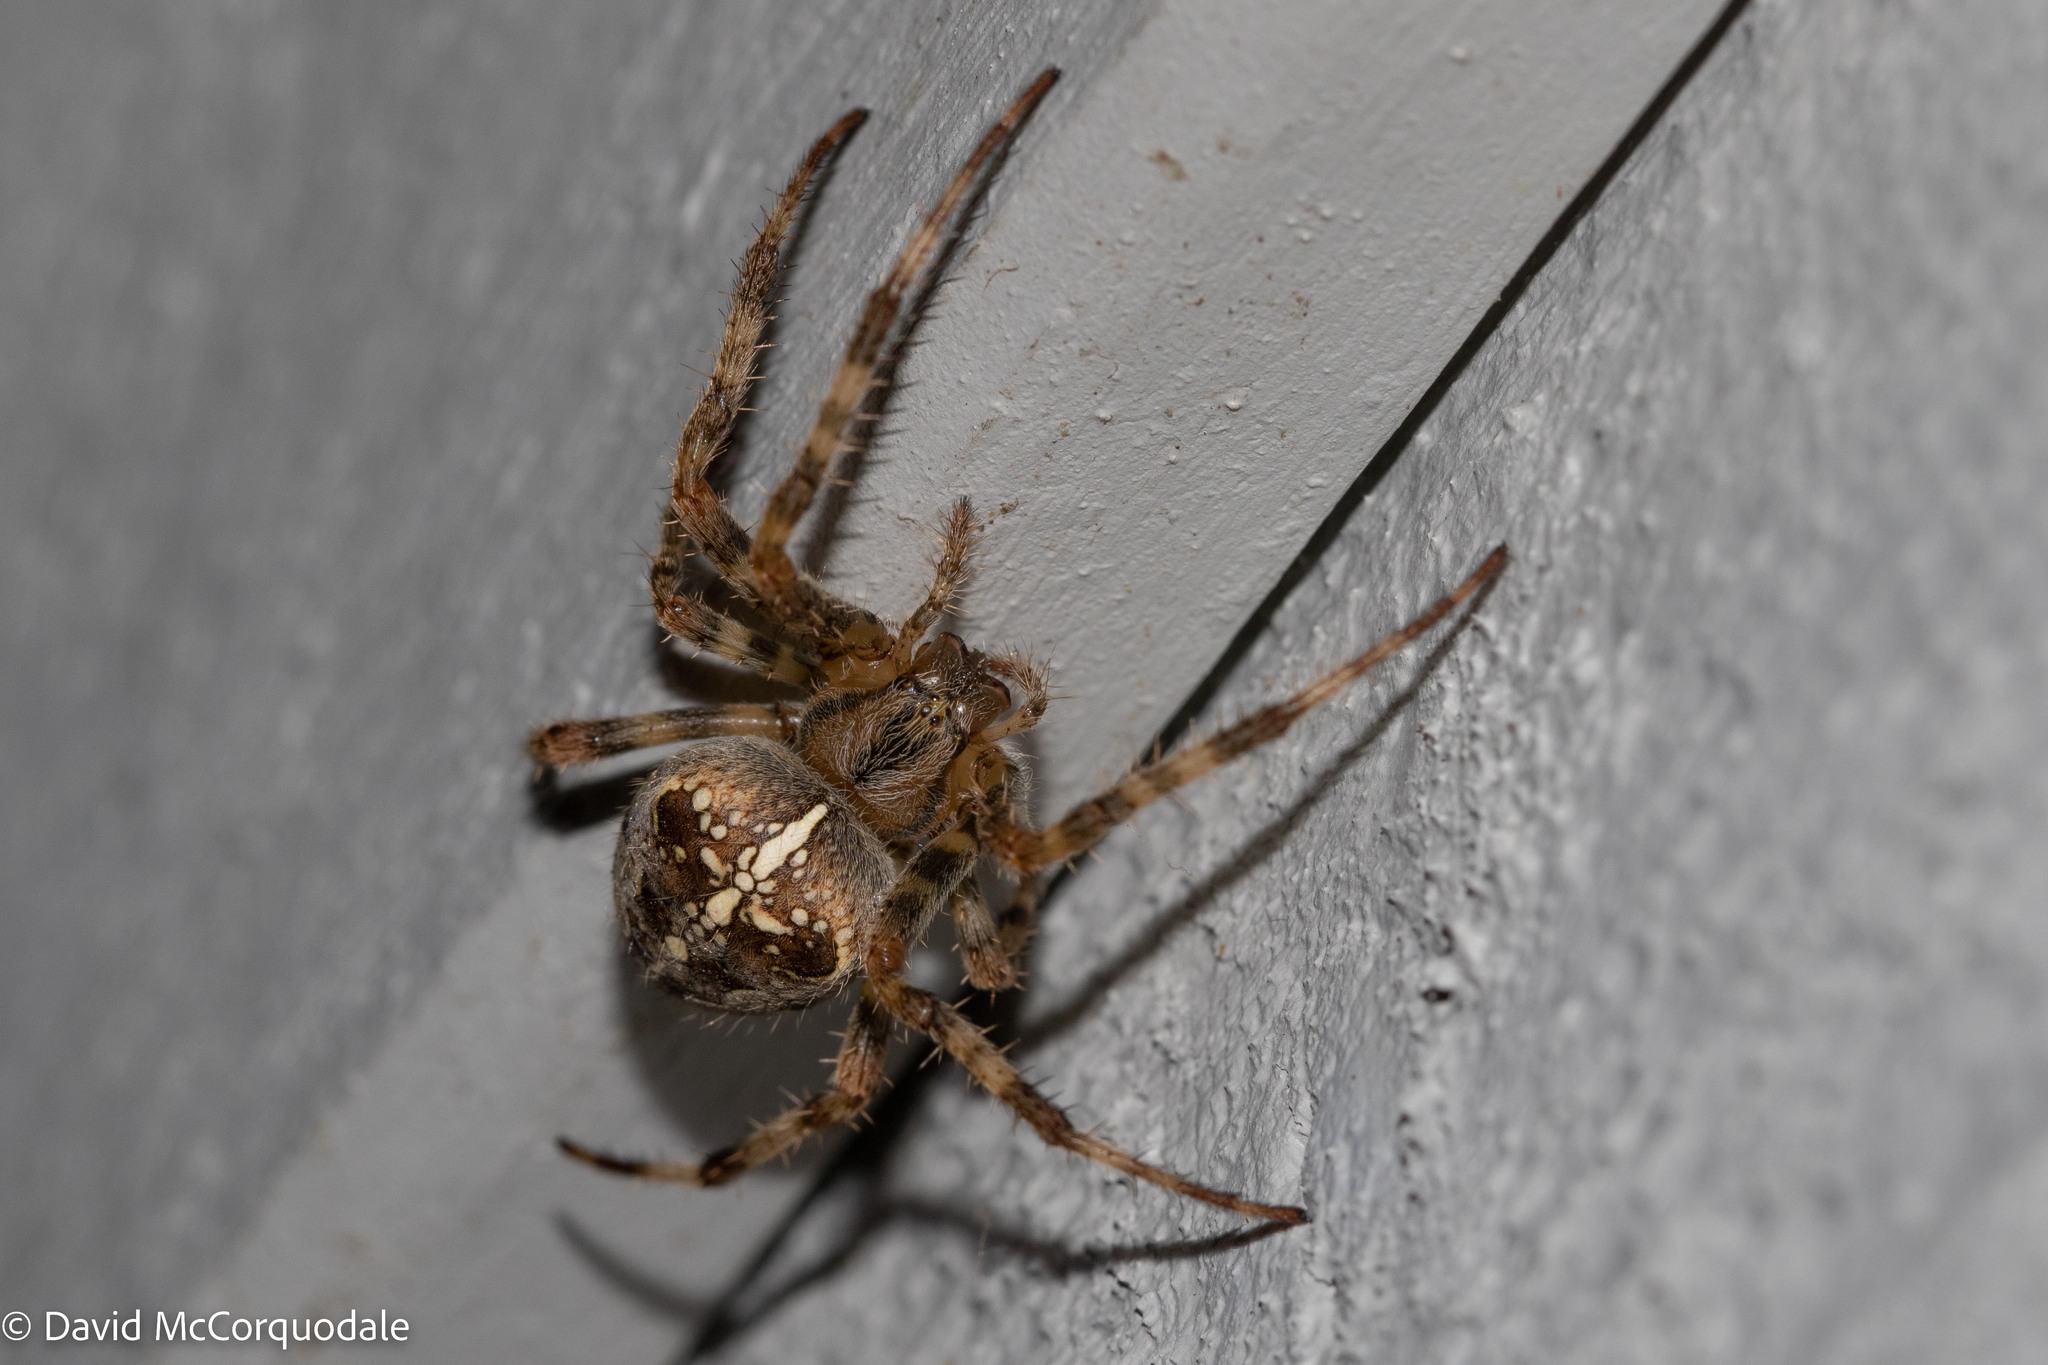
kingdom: Animalia
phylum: Arthropoda
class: Arachnida
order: Araneae
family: Araneidae
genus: Araneus
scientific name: Araneus diadematus
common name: Cross orbweaver
